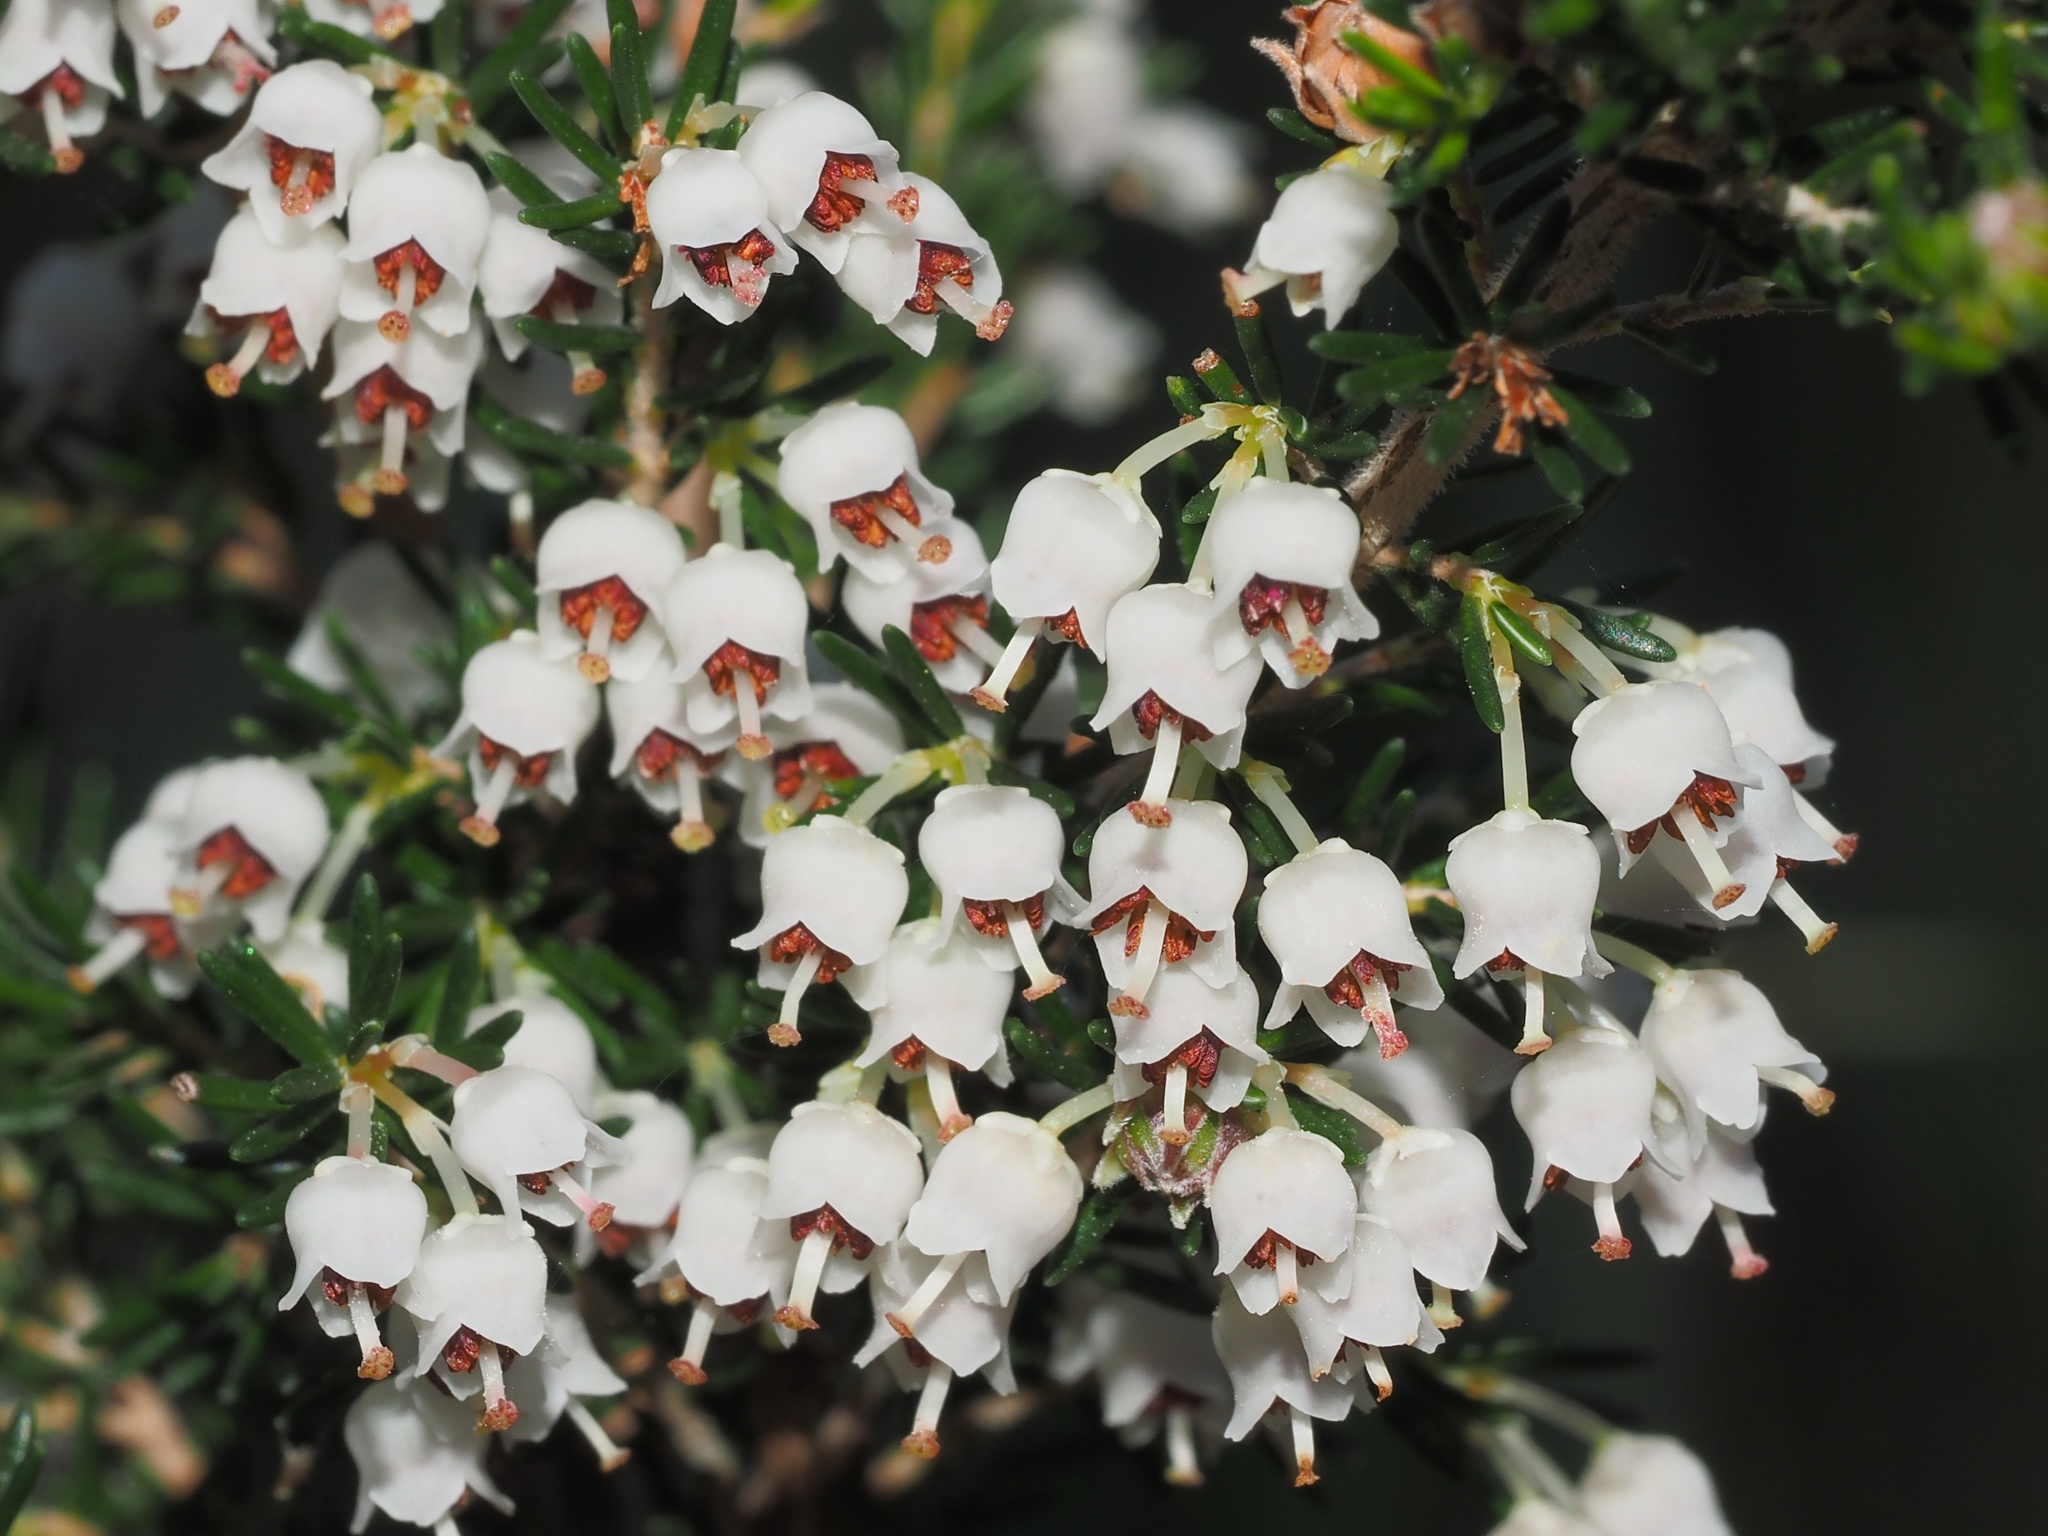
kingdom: Plantae
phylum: Tracheophyta
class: Magnoliopsida
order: Ericales
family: Ericaceae
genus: Erica
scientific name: Erica arborea
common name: Tree heath
